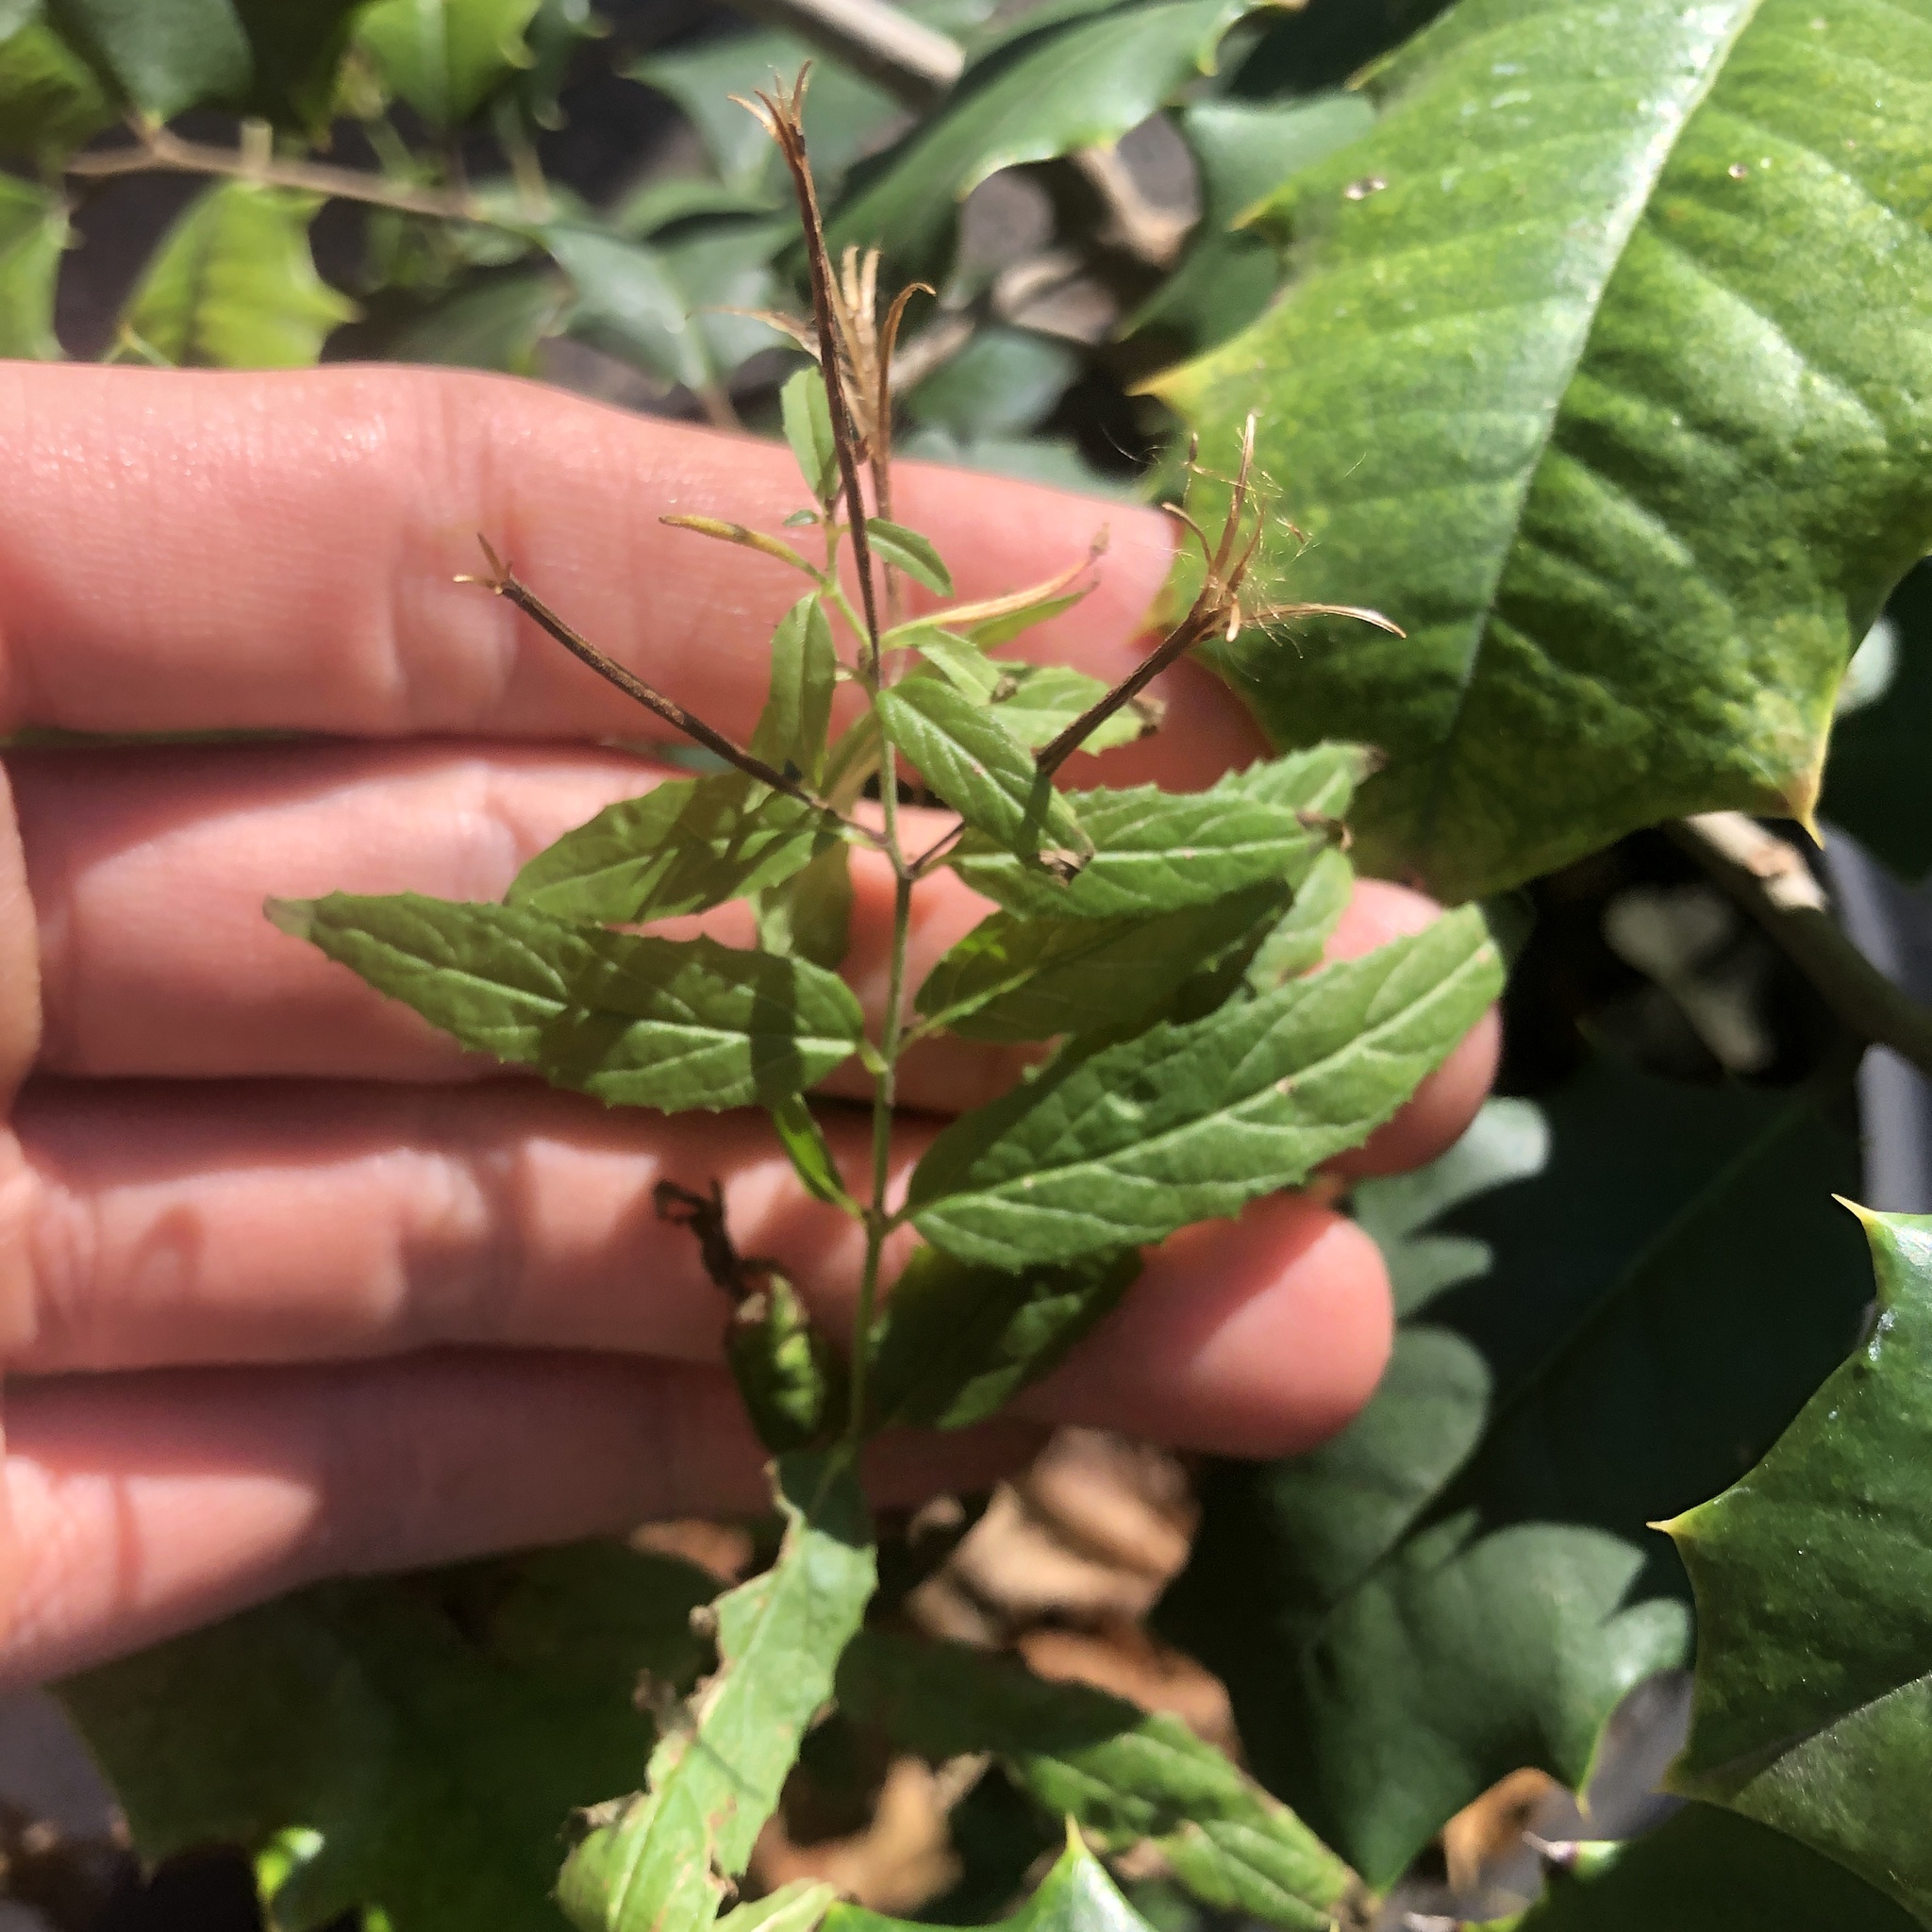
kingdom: Plantae
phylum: Tracheophyta
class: Magnoliopsida
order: Myrtales
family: Onagraceae
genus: Epilobium
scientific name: Epilobium coloratum
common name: Bronze willowherb
